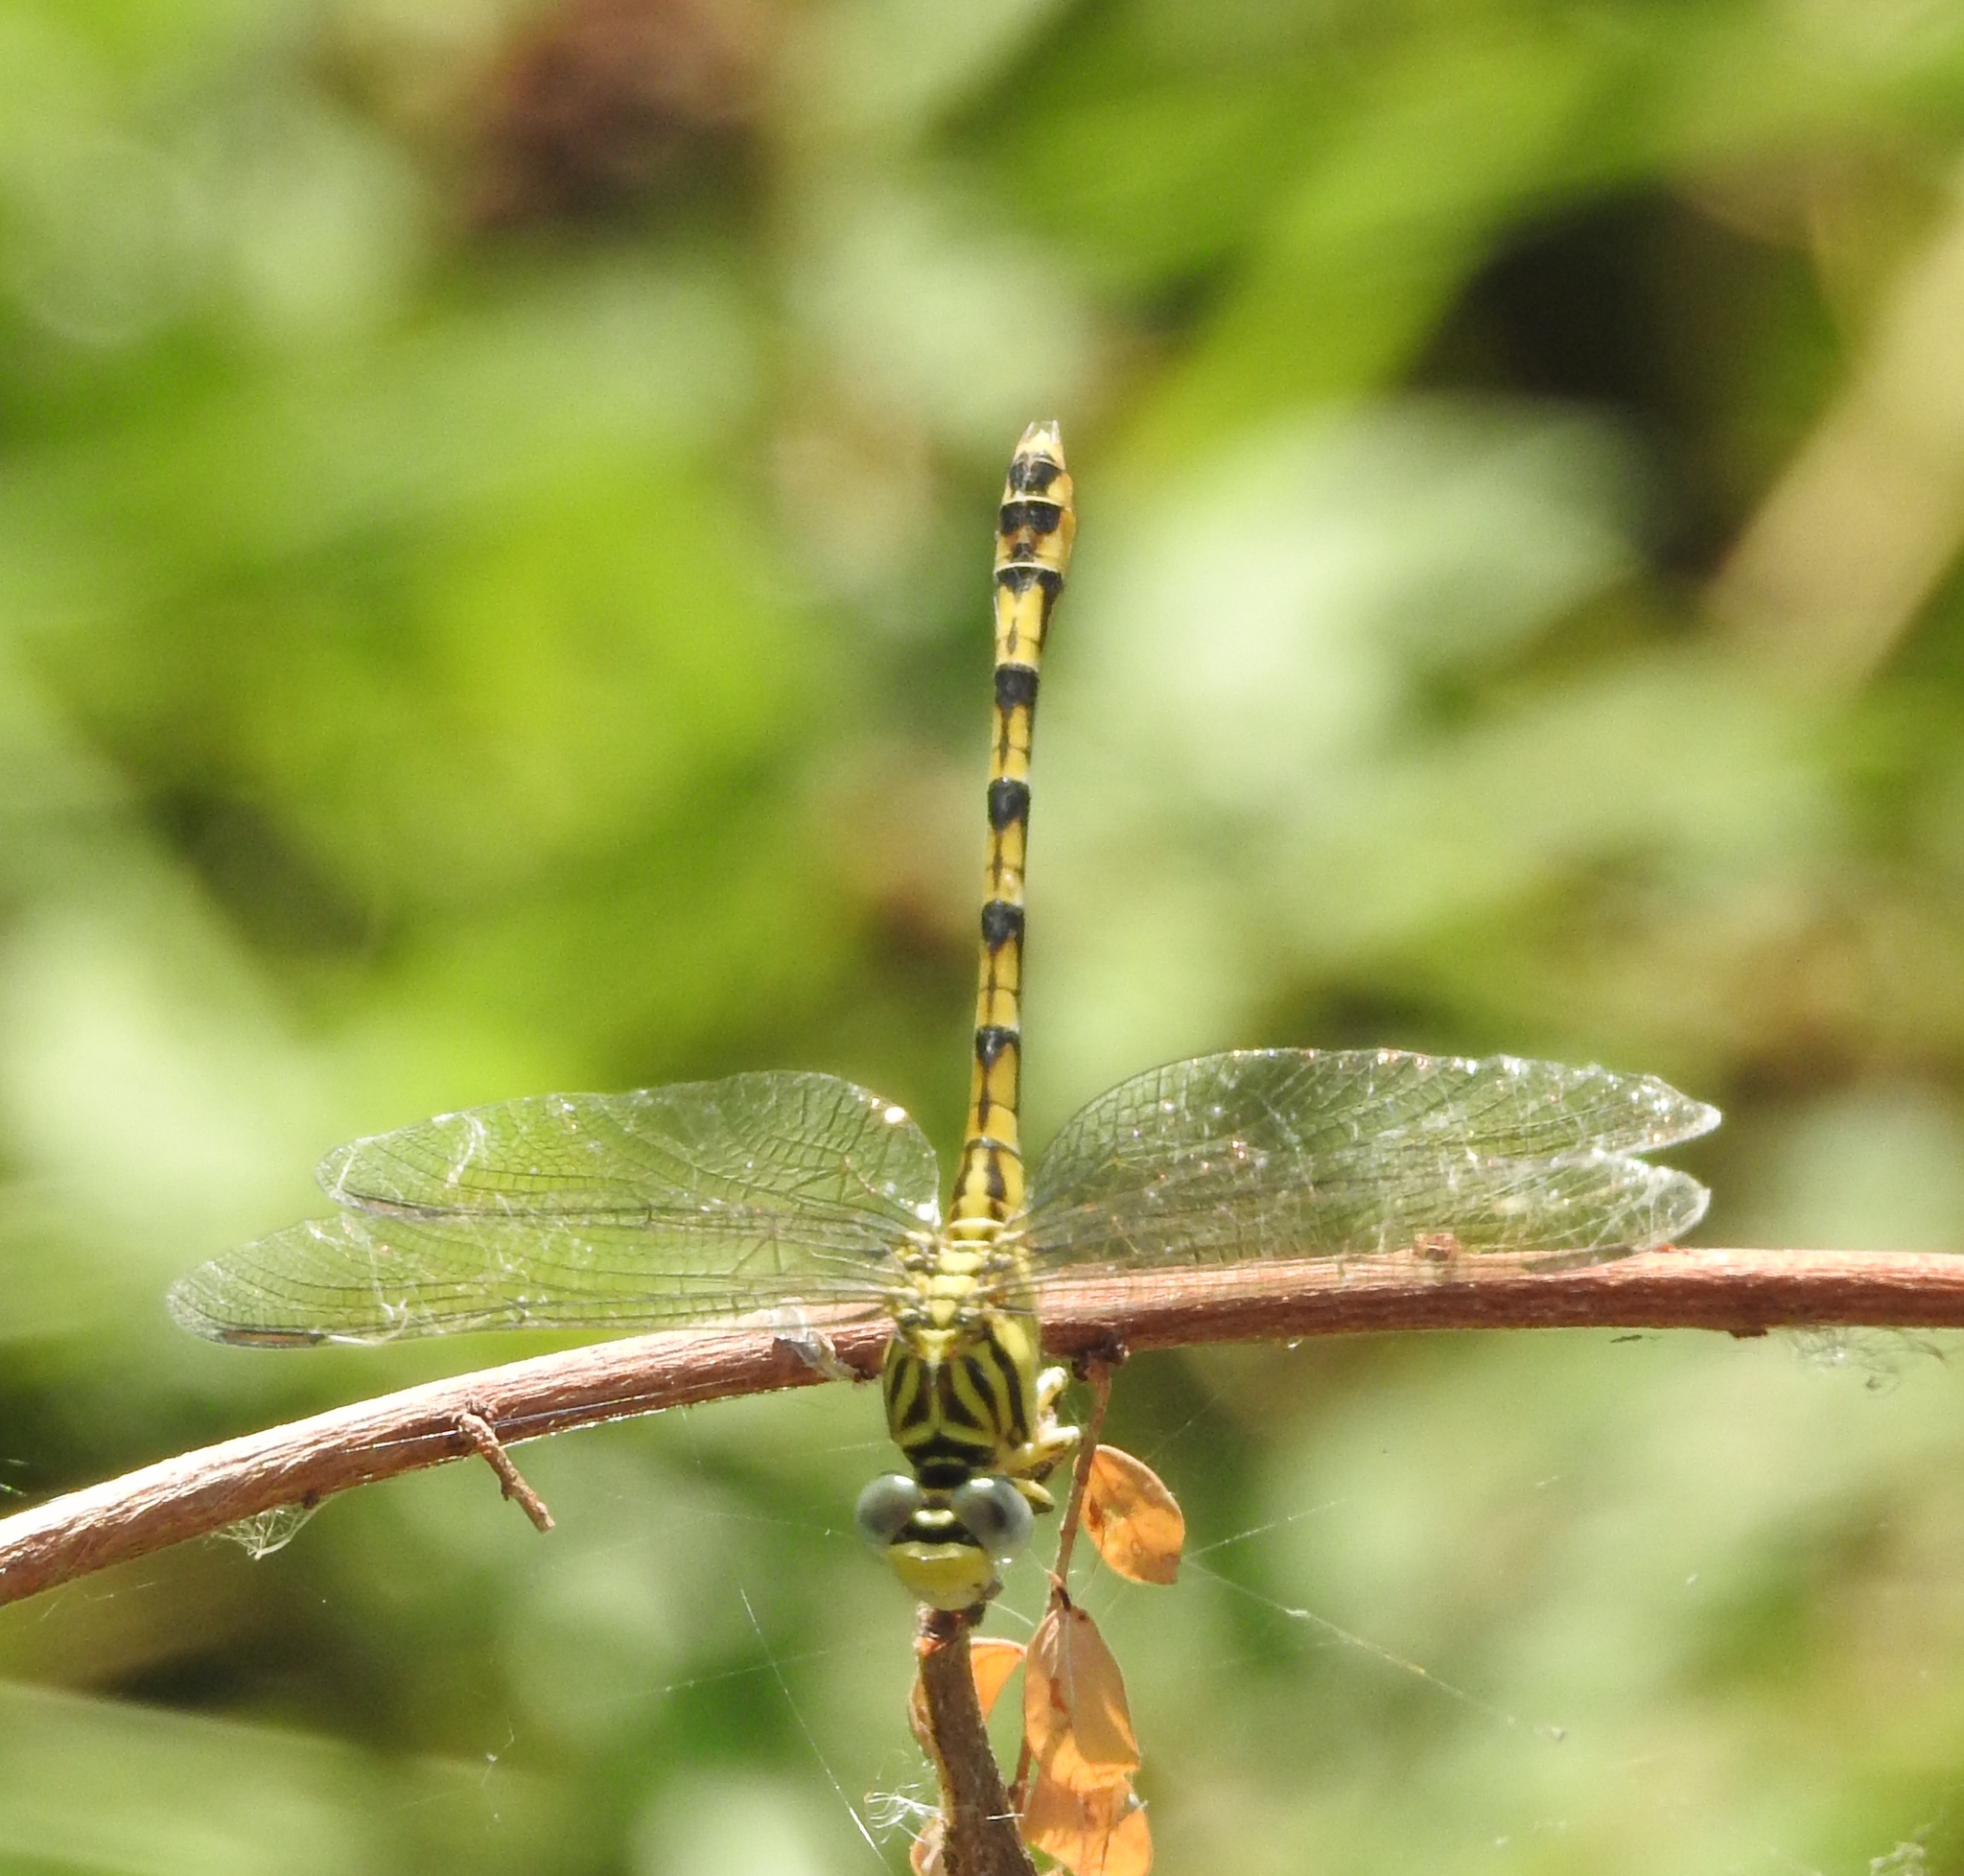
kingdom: Animalia
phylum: Arthropoda
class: Insecta
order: Odonata
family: Gomphidae
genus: Paragomphus
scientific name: Paragomphus lineatus
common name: Lined hooktail
